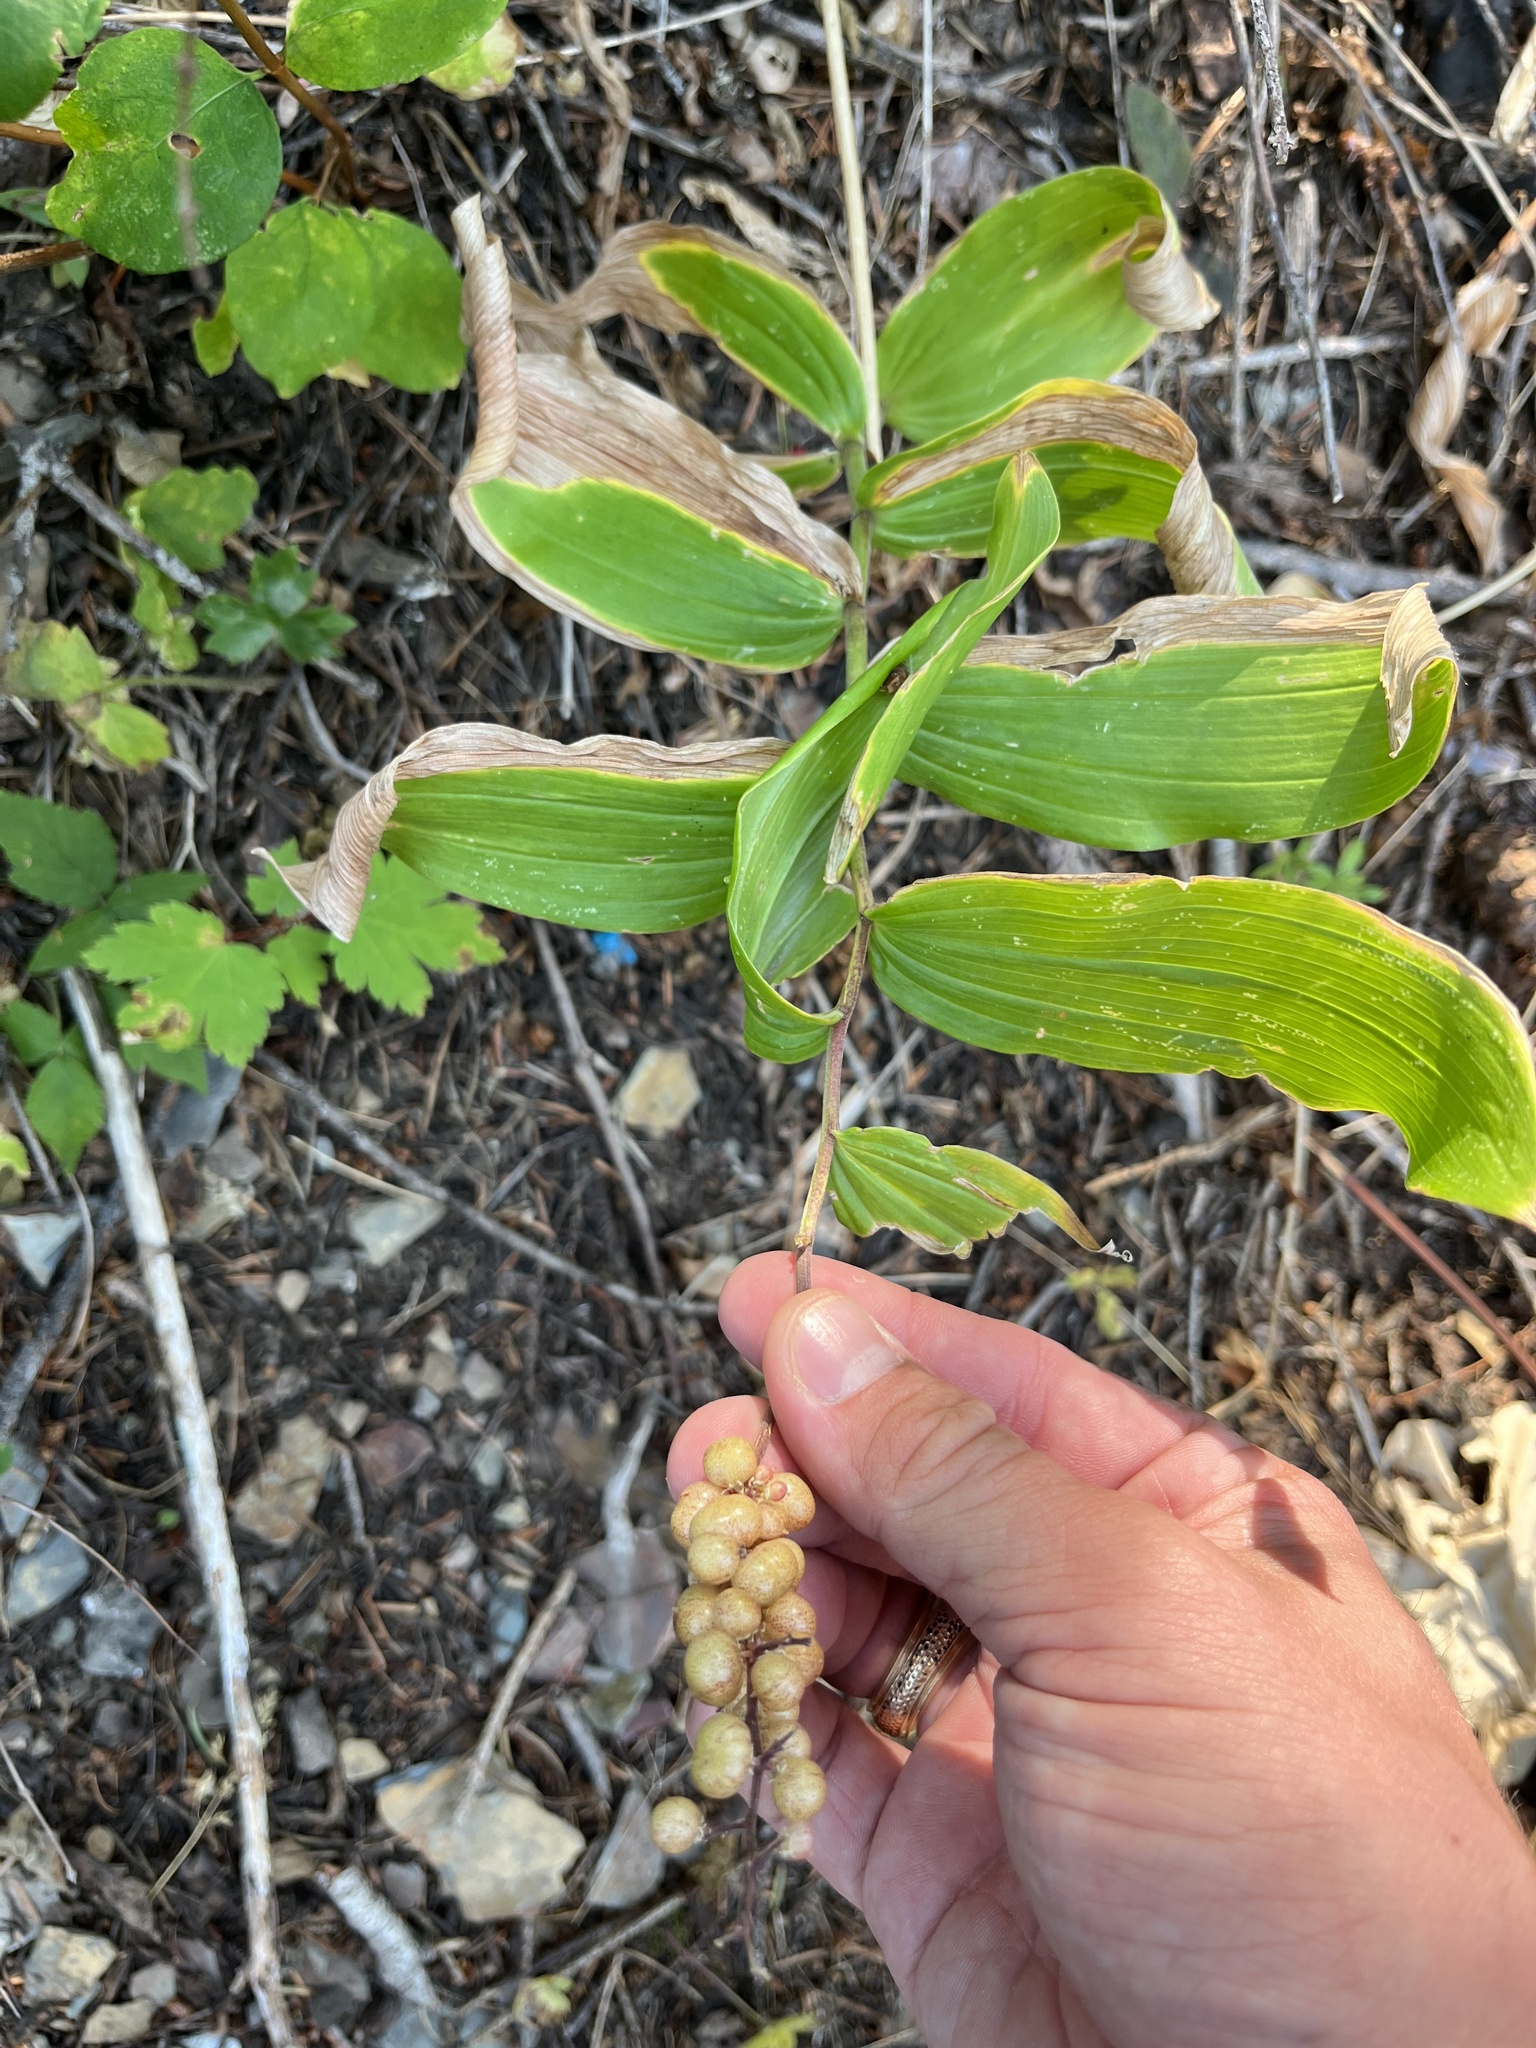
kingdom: Plantae
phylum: Tracheophyta
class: Liliopsida
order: Asparagales
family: Asparagaceae
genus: Maianthemum
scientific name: Maianthemum racemosum
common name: False spikenard
